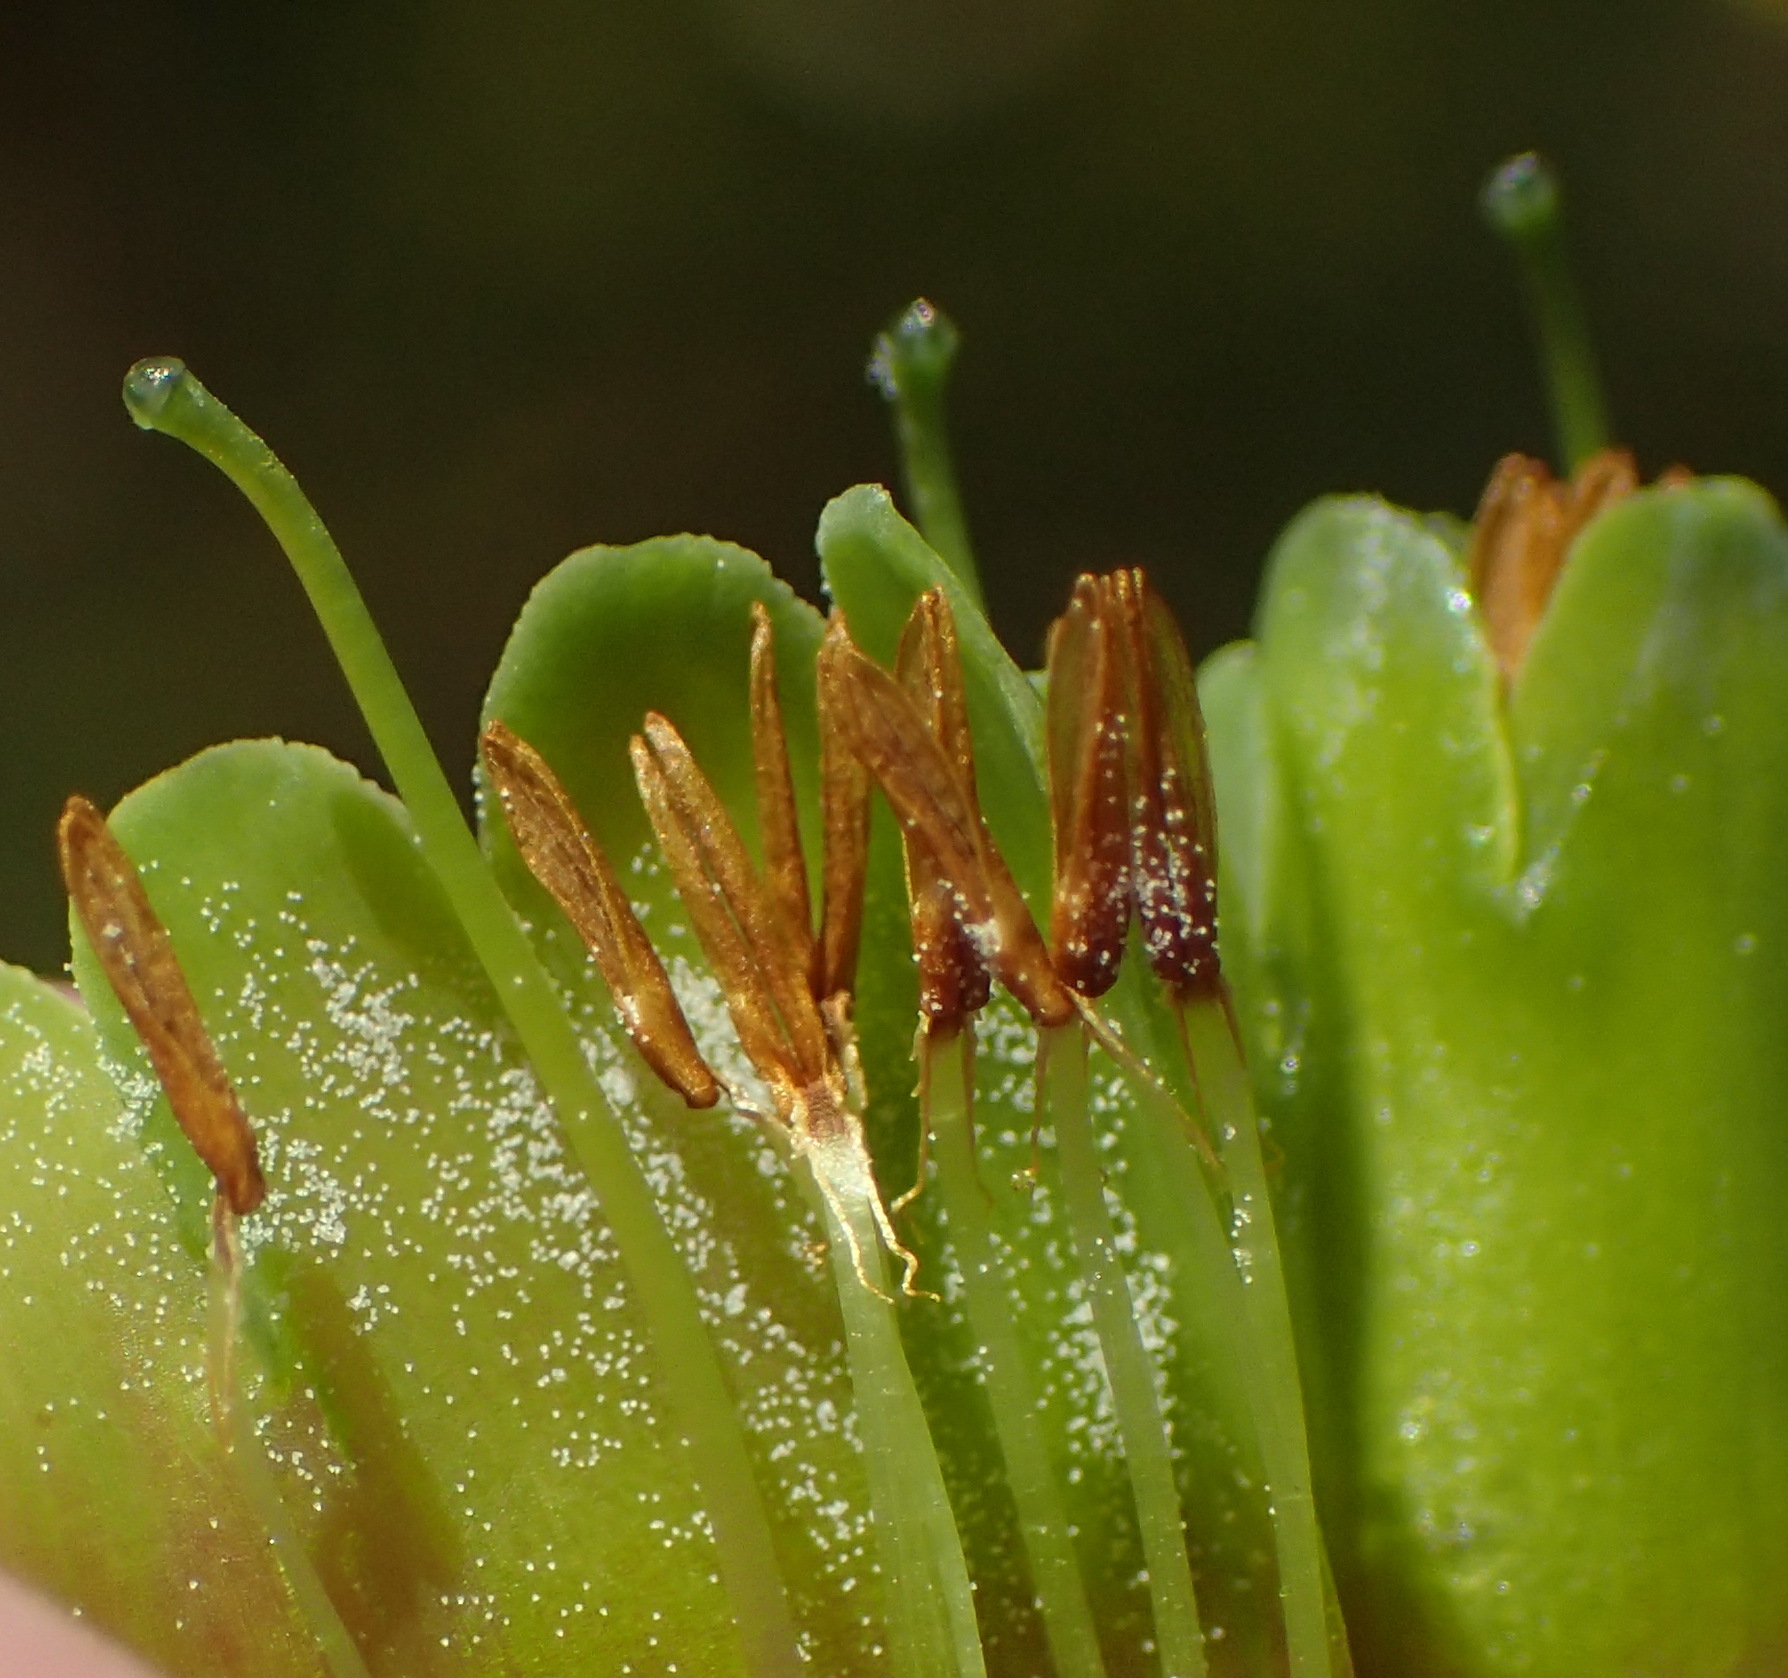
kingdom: Plantae
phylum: Tracheophyta
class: Magnoliopsida
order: Ericales
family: Ericaceae
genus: Erica
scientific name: Erica unicolor
